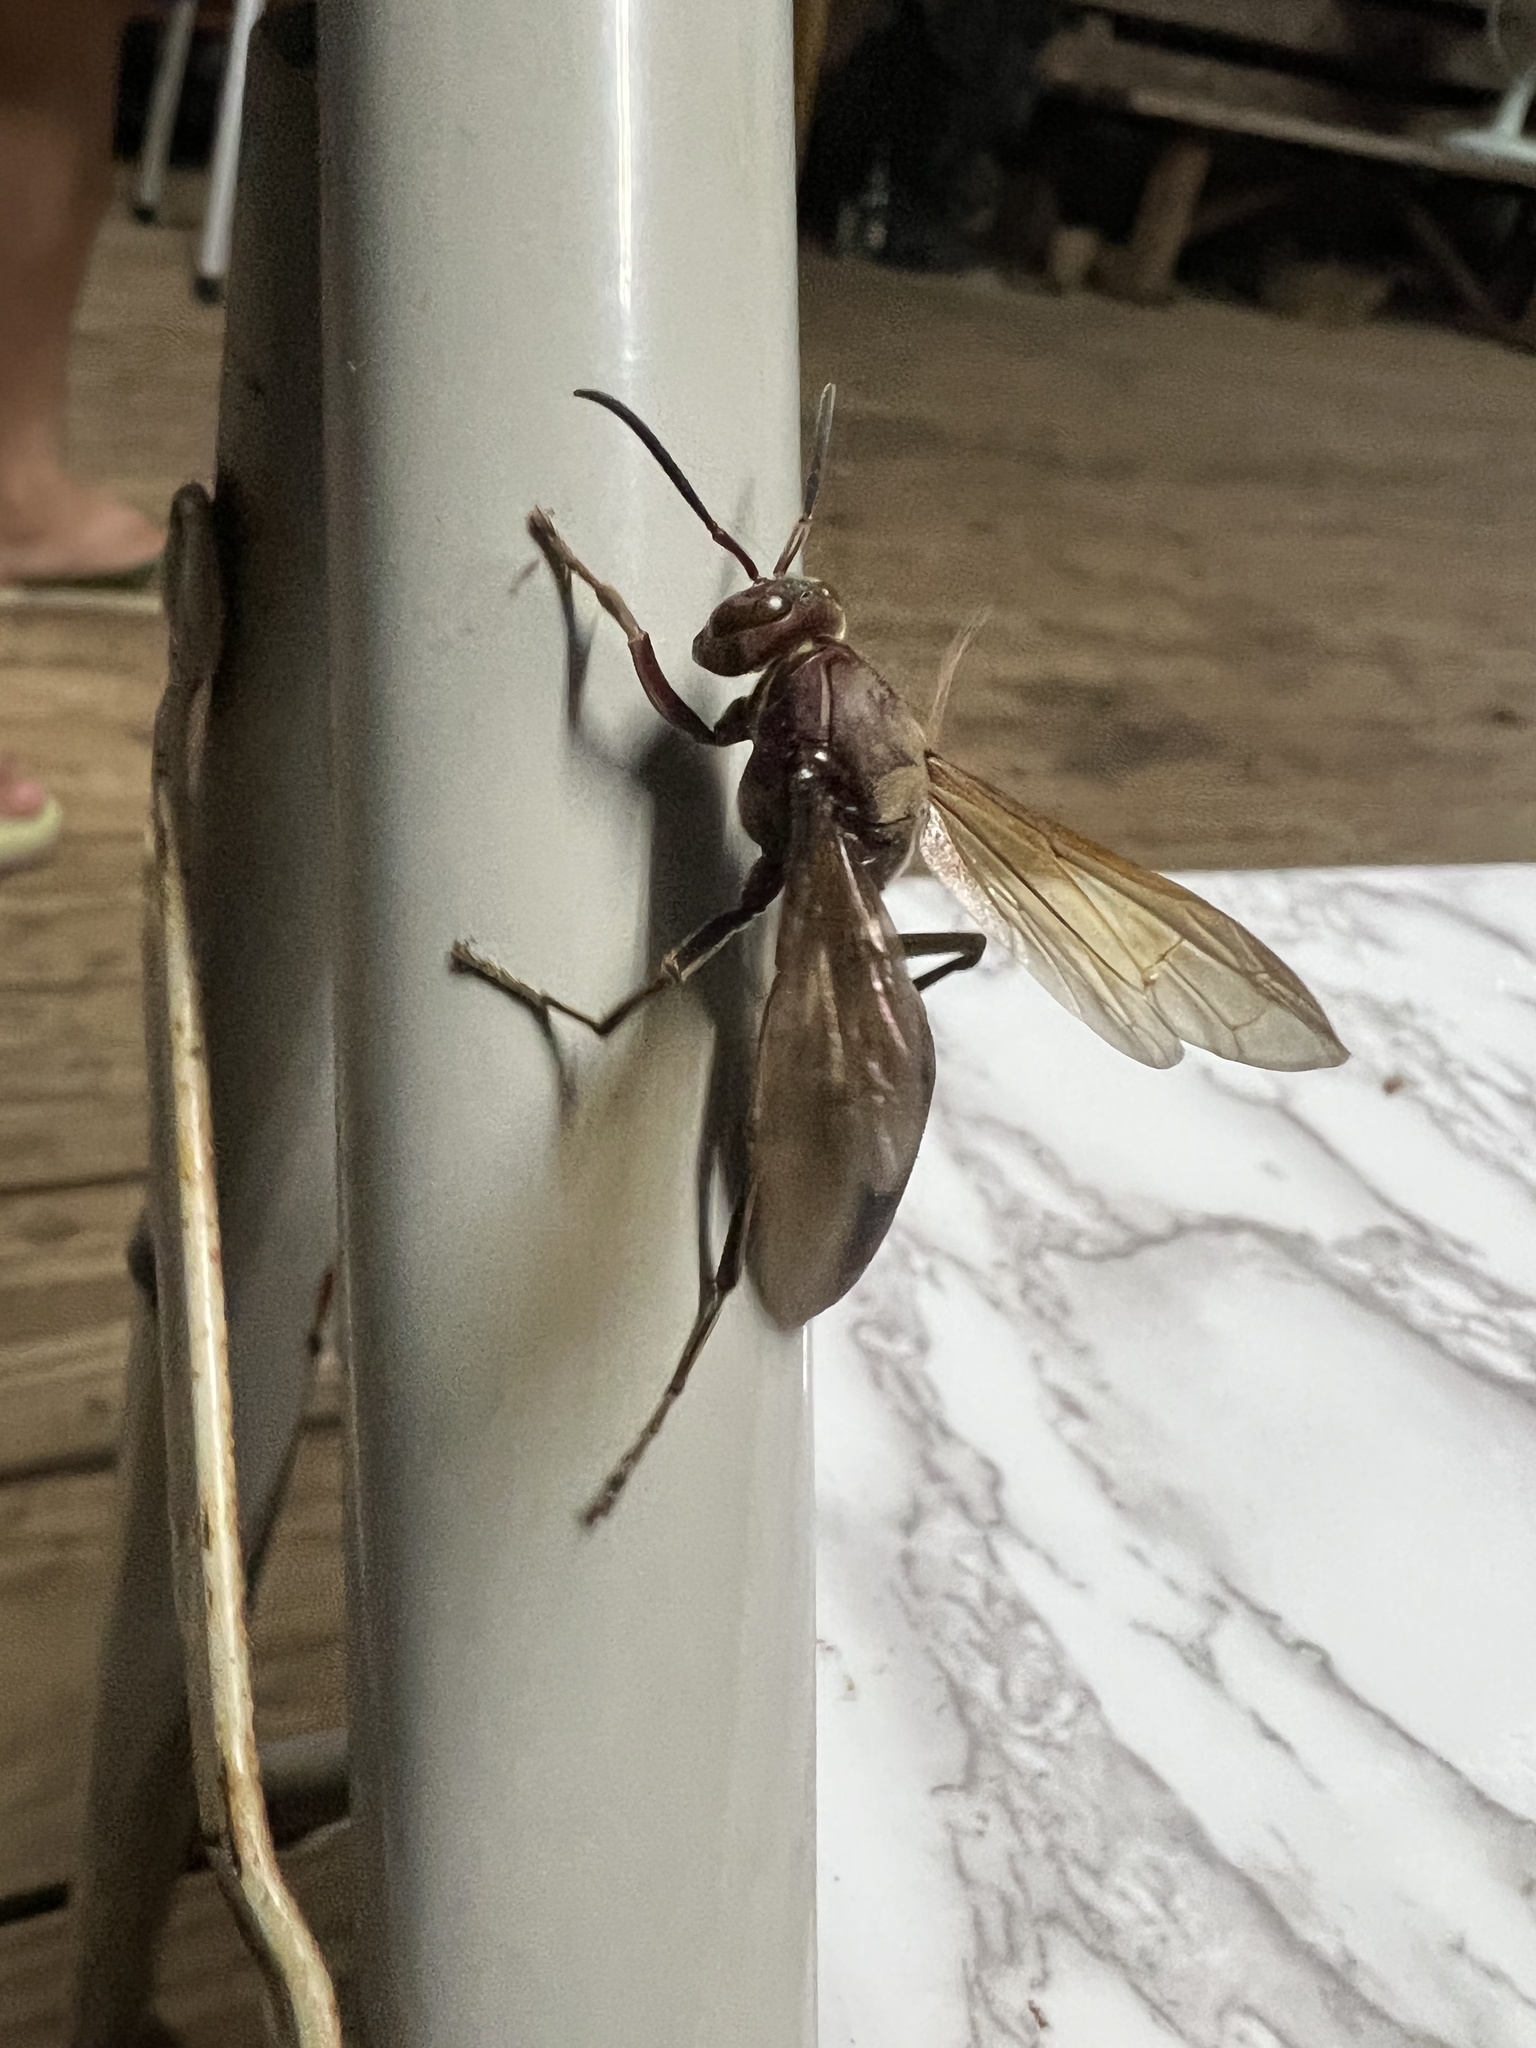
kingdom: Animalia
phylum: Arthropoda
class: Insecta
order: Hymenoptera
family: Eumenidae
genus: Polistes
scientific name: Polistes gigas
